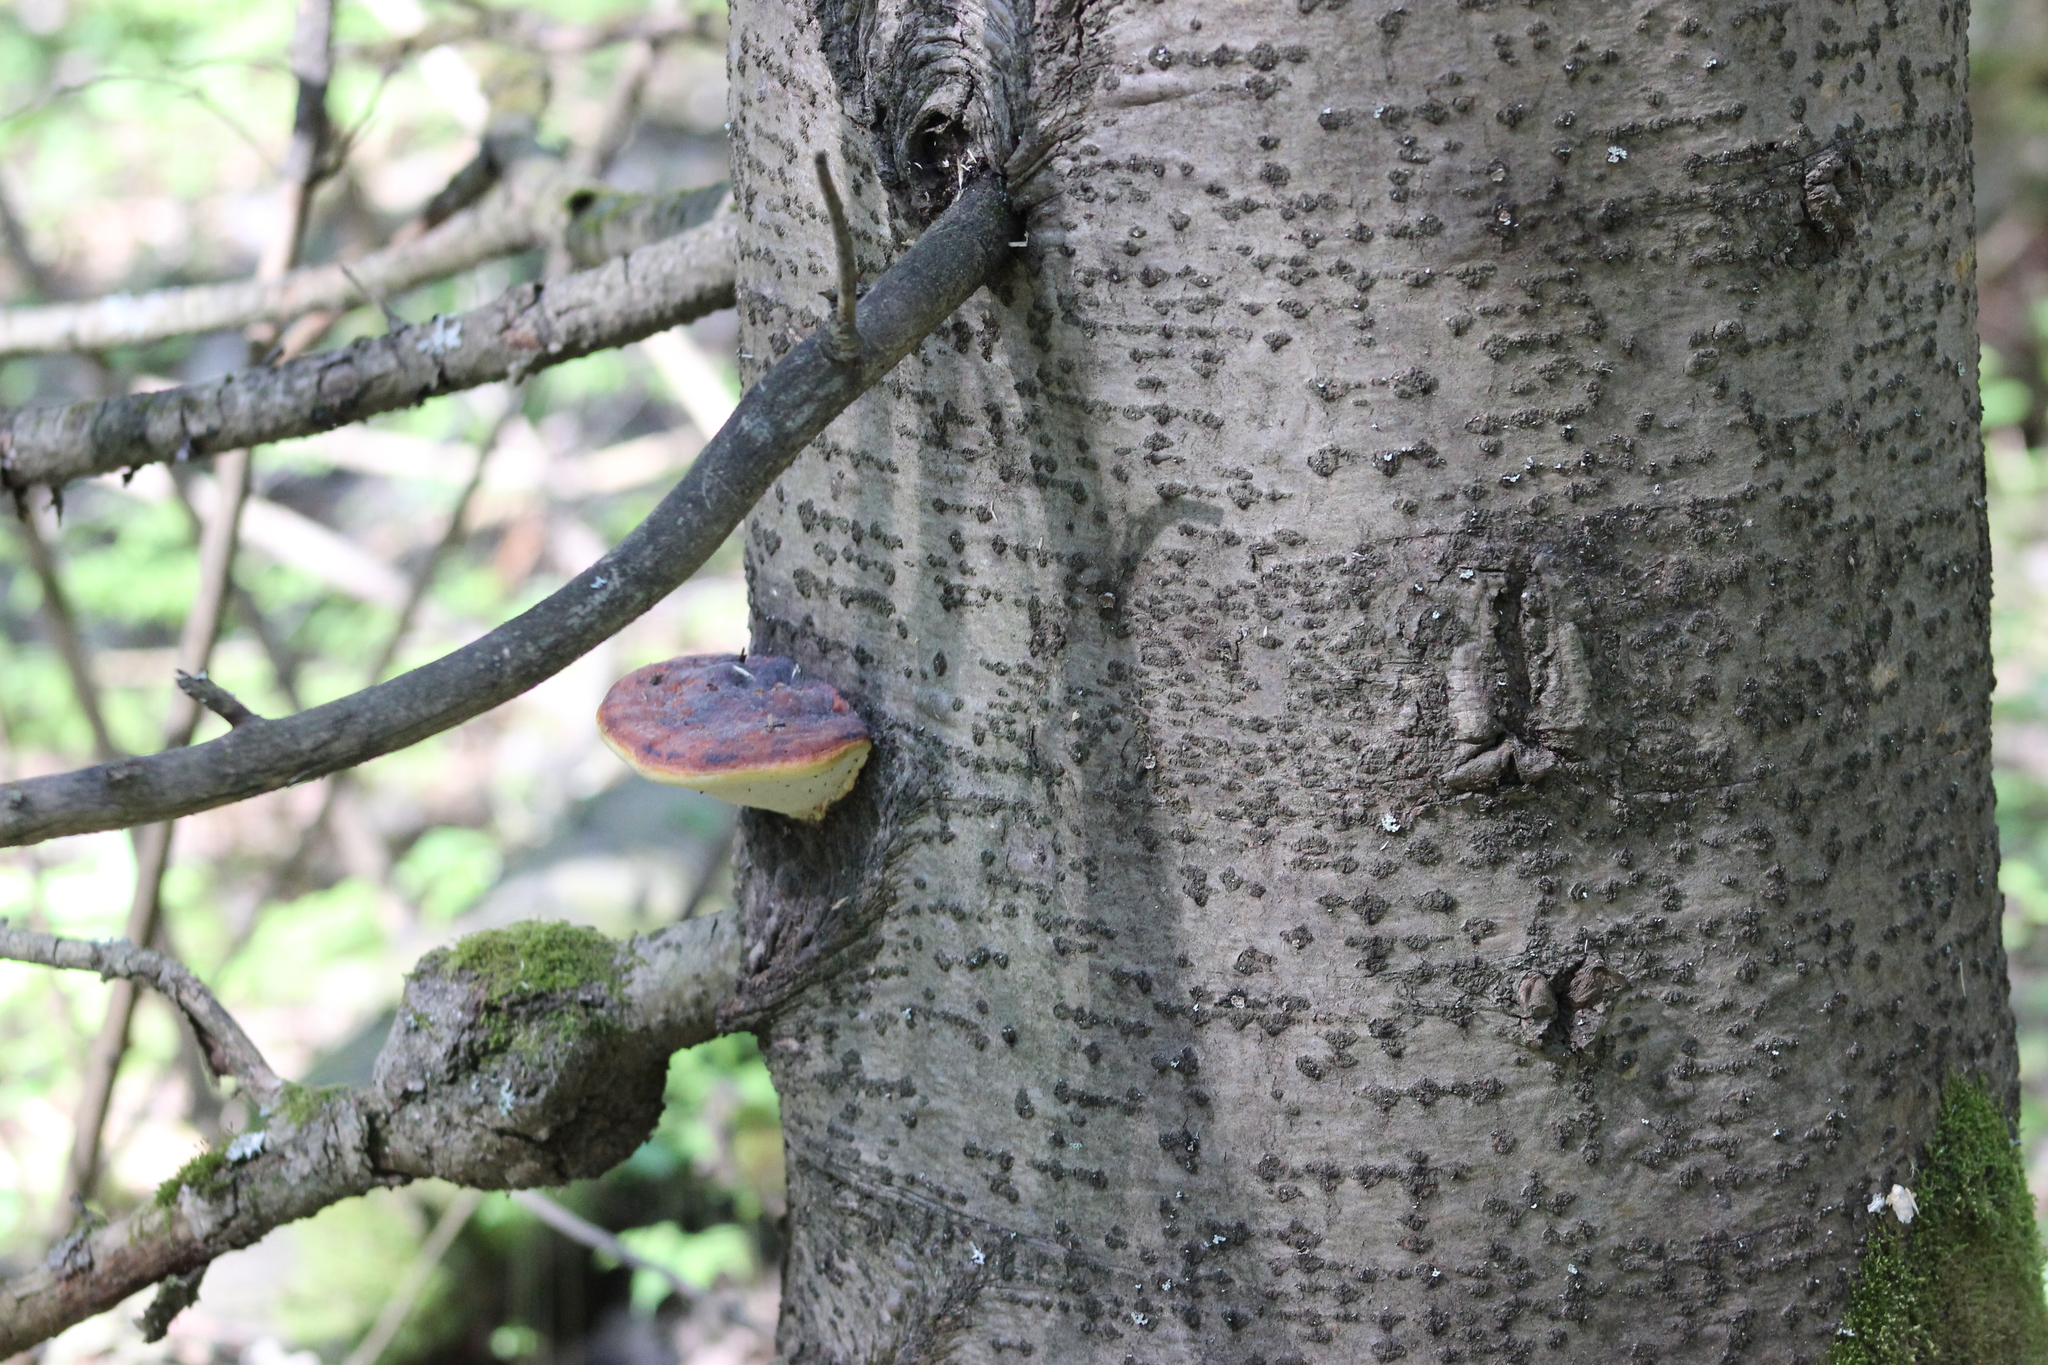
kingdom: Fungi
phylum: Basidiomycota
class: Agaricomycetes
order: Polyporales
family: Fomitopsidaceae
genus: Fomitopsis
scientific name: Fomitopsis pinicola
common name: Red-belted bracket
